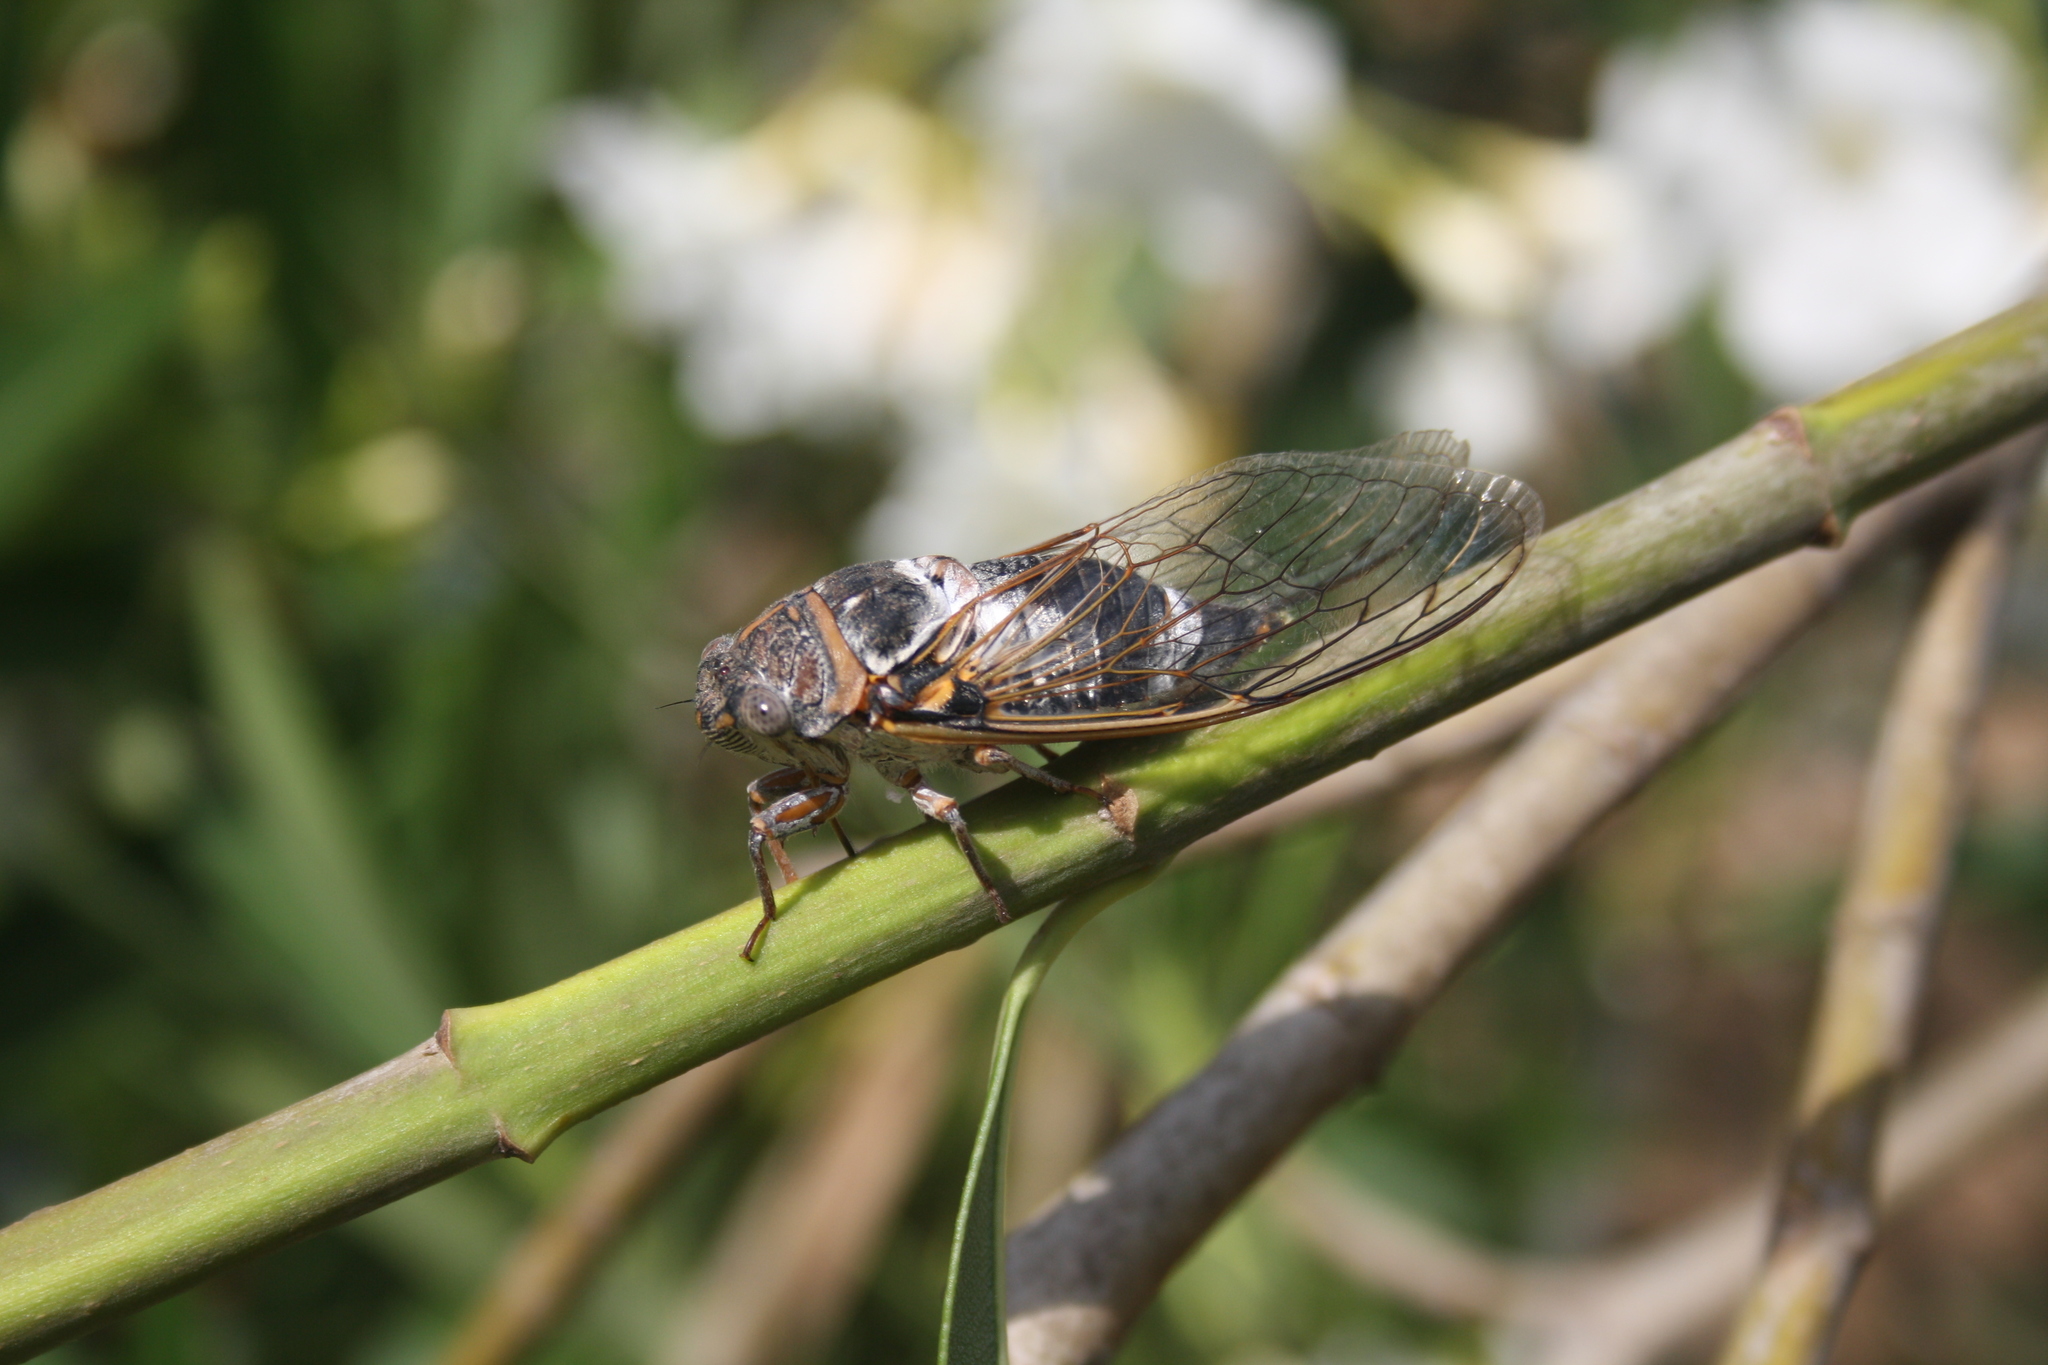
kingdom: Animalia
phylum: Arthropoda
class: Insecta
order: Hemiptera
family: Cicadidae
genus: Lyristes
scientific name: Lyristes plebejus
